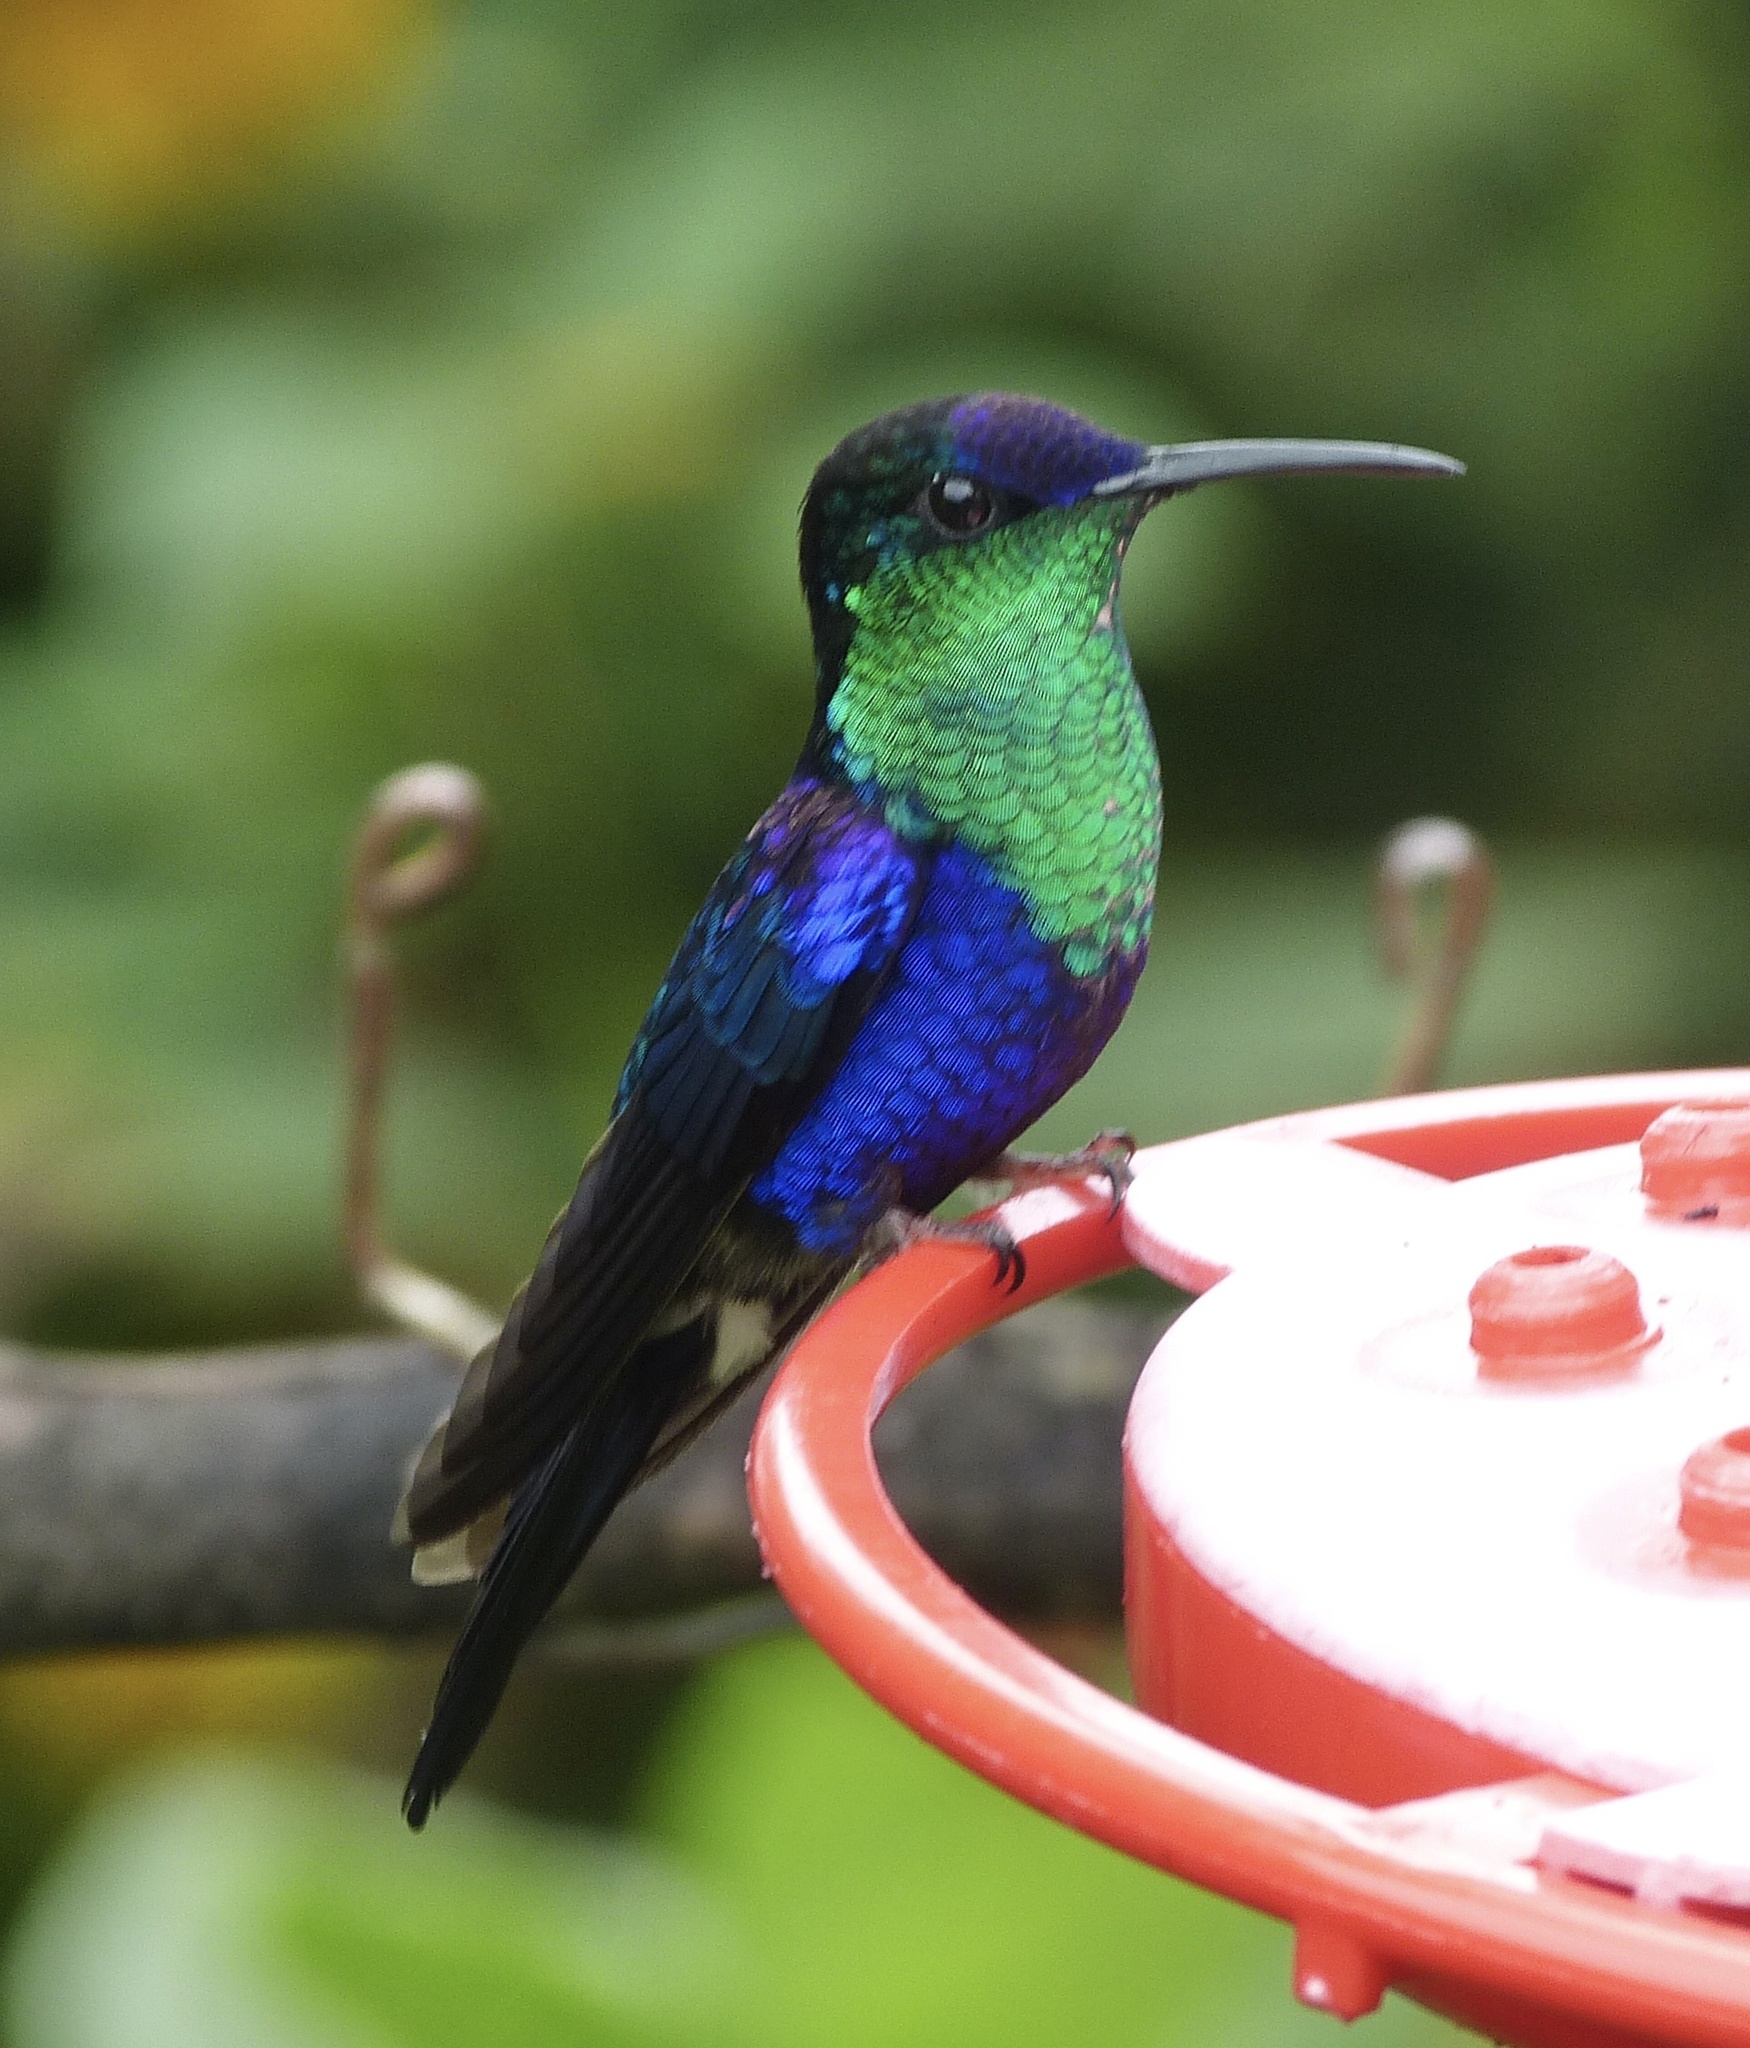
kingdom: Animalia
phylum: Chordata
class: Aves
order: Apodiformes
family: Trochilidae
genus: Thalurania
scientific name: Thalurania colombica
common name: Crowned woodnymph
